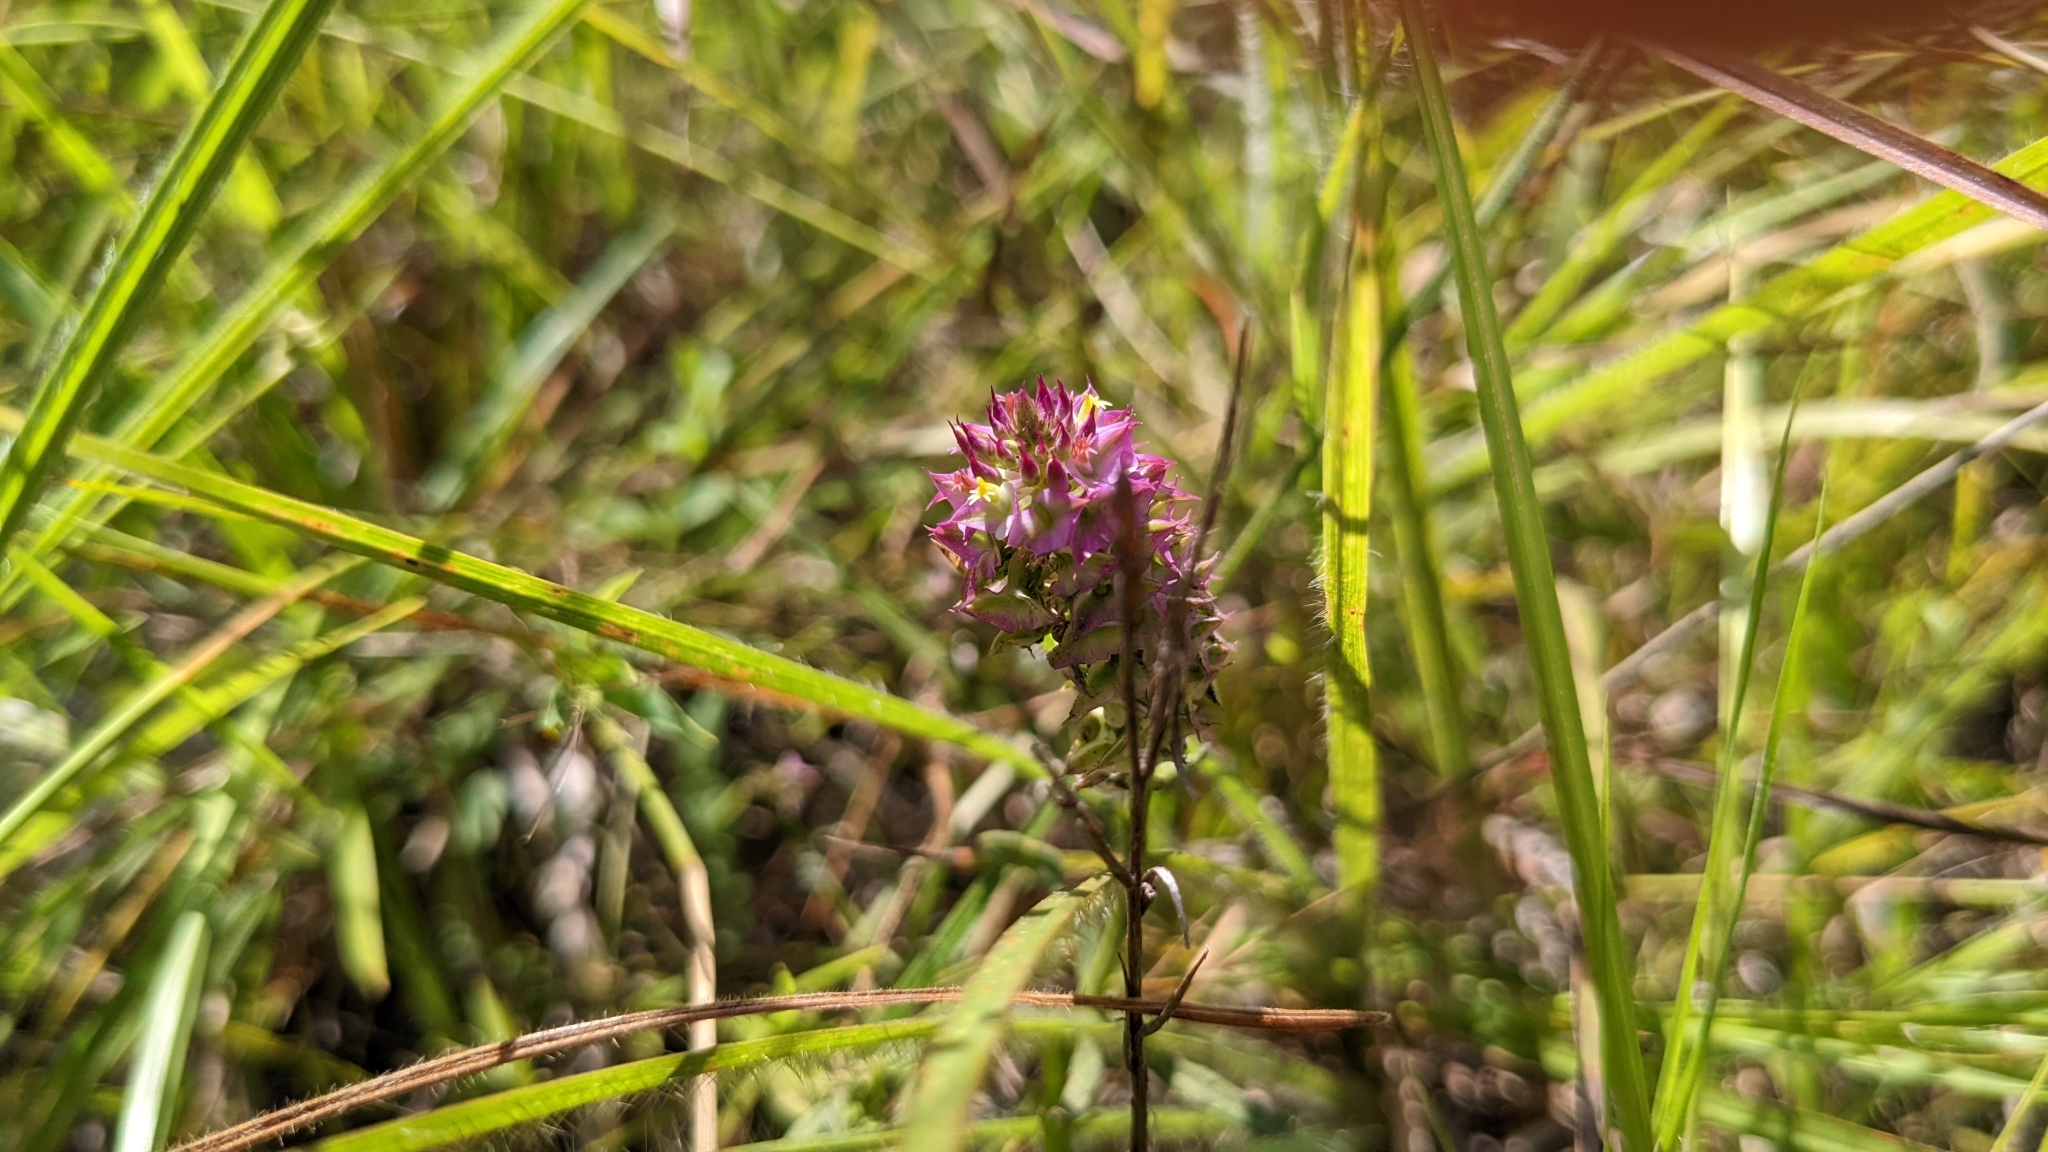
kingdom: Plantae
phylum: Tracheophyta
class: Magnoliopsida
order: Fabales
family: Polygalaceae
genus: Polygala
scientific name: Polygala cruciata
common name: Drumheads
